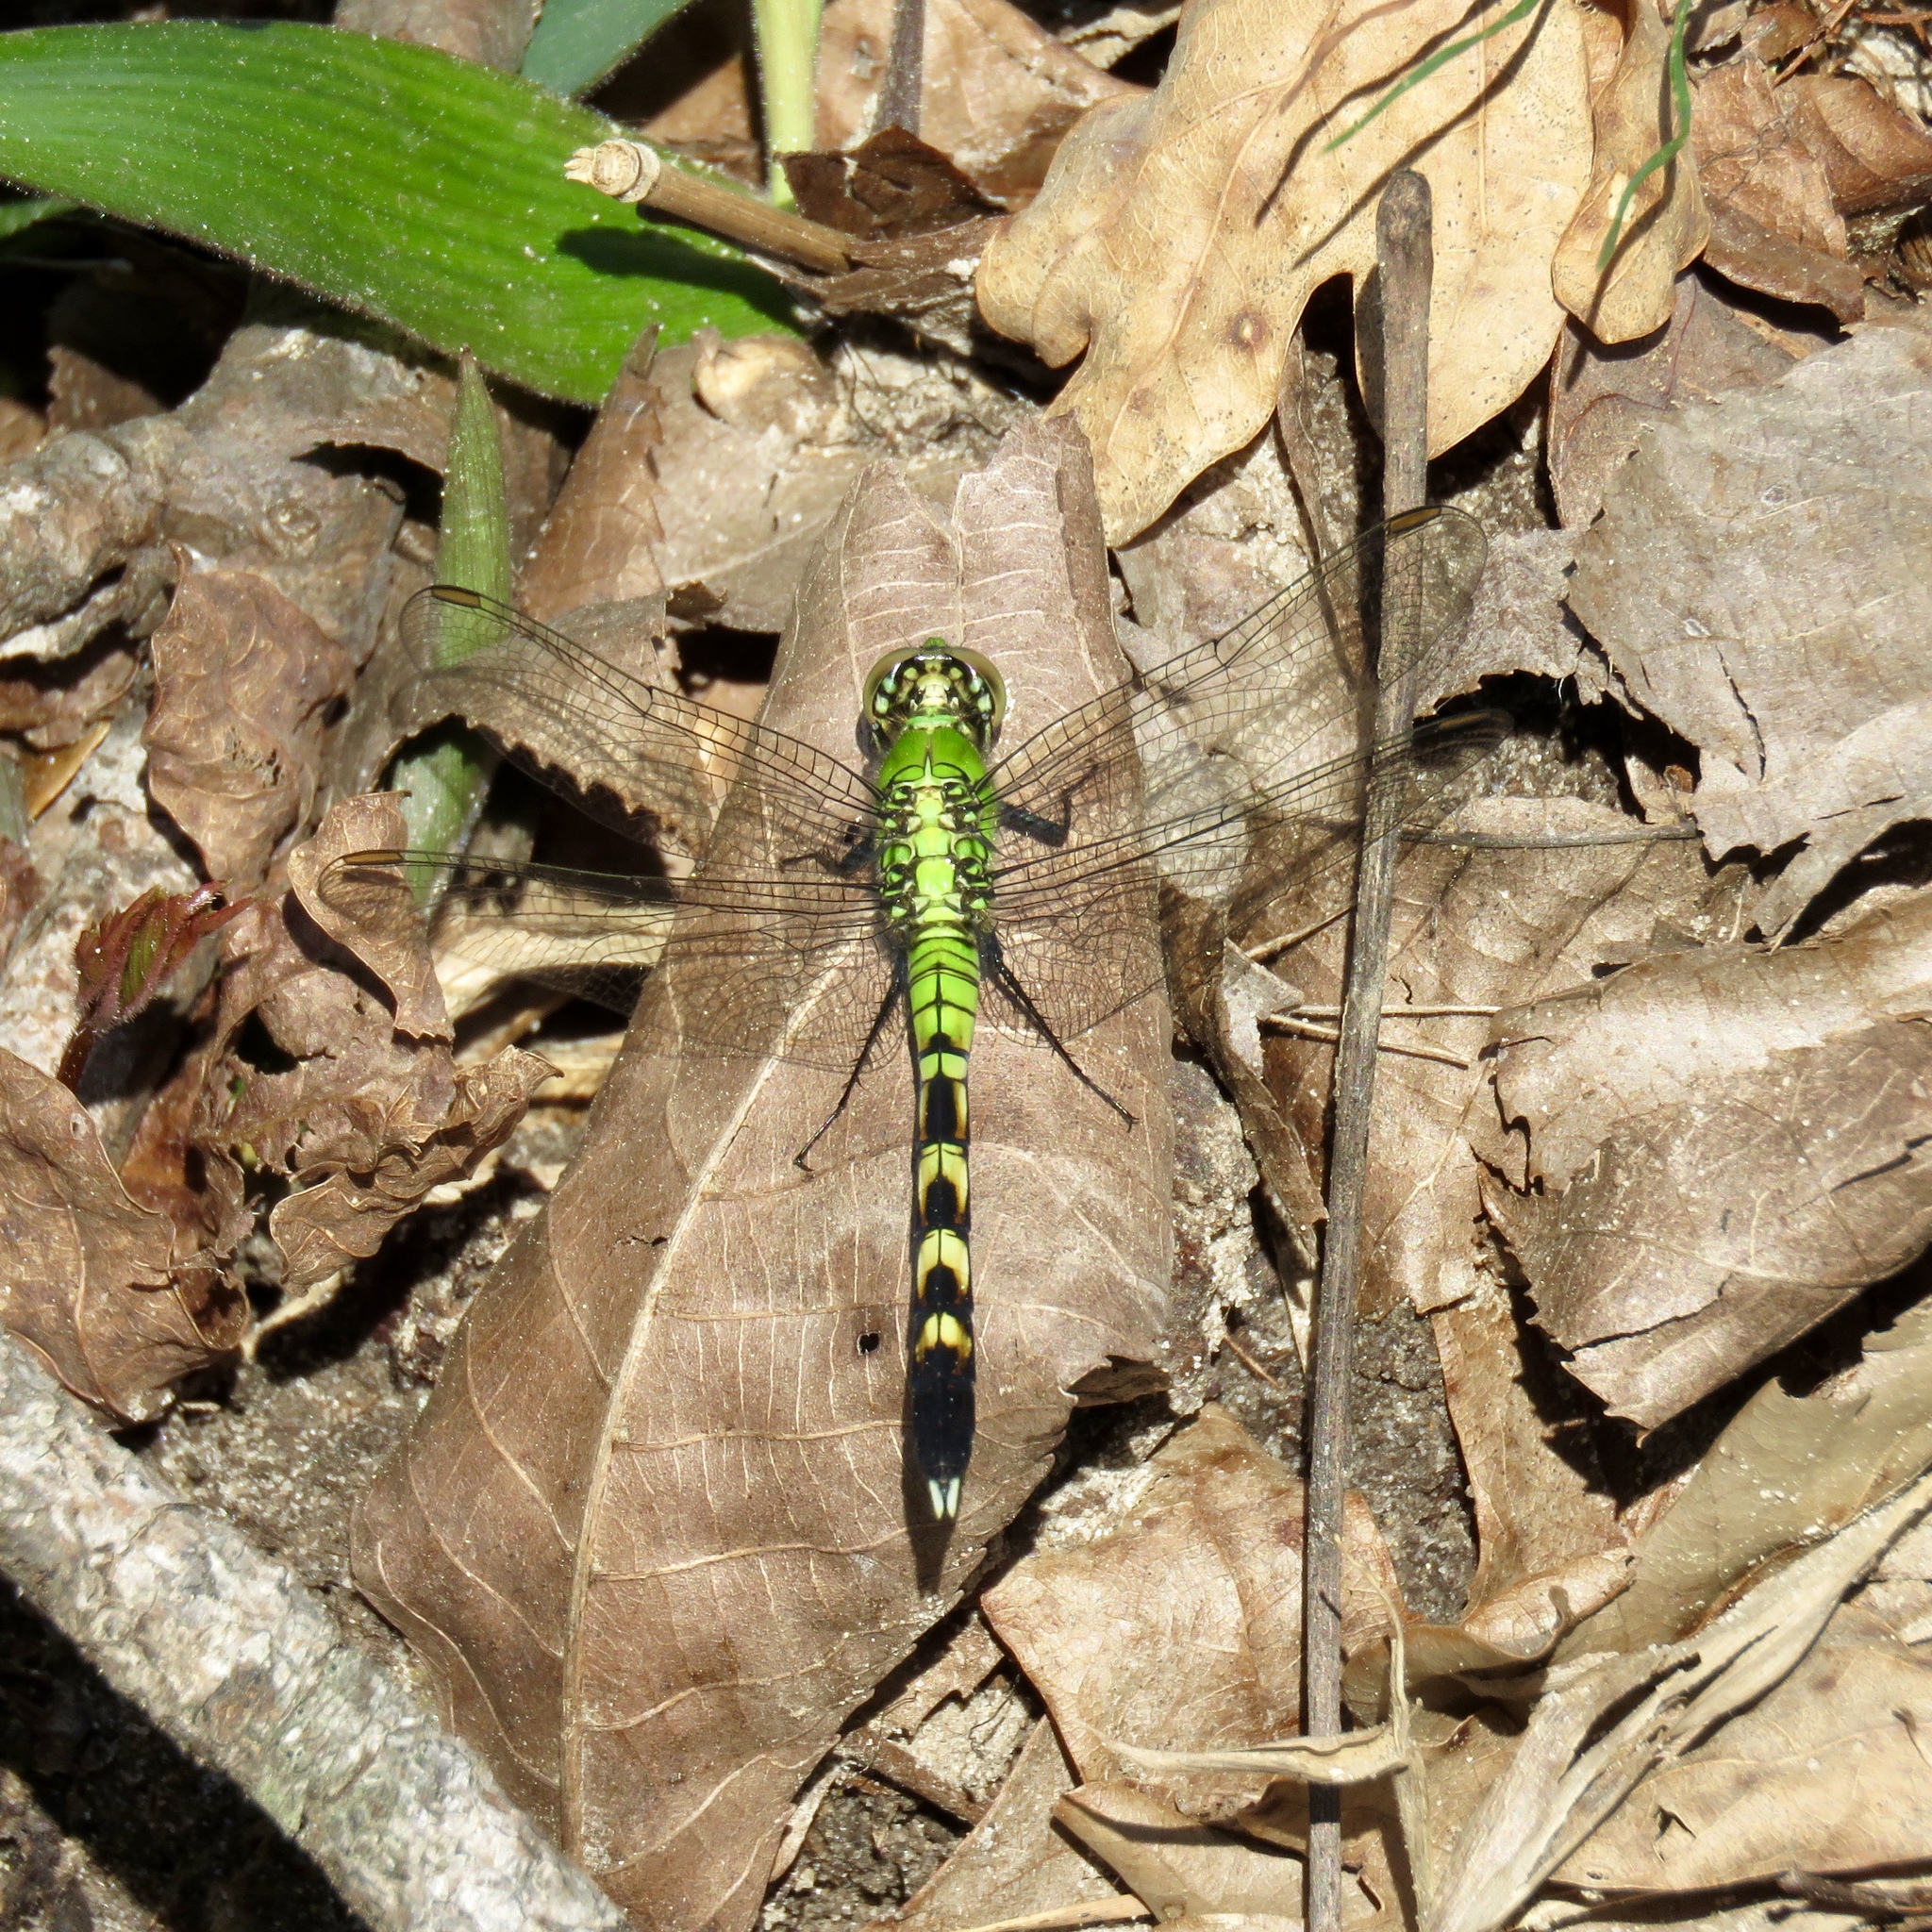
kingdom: Animalia
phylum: Arthropoda
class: Insecta
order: Odonata
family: Libellulidae
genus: Erythemis
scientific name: Erythemis simplicicollis
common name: Eastern pondhawk
